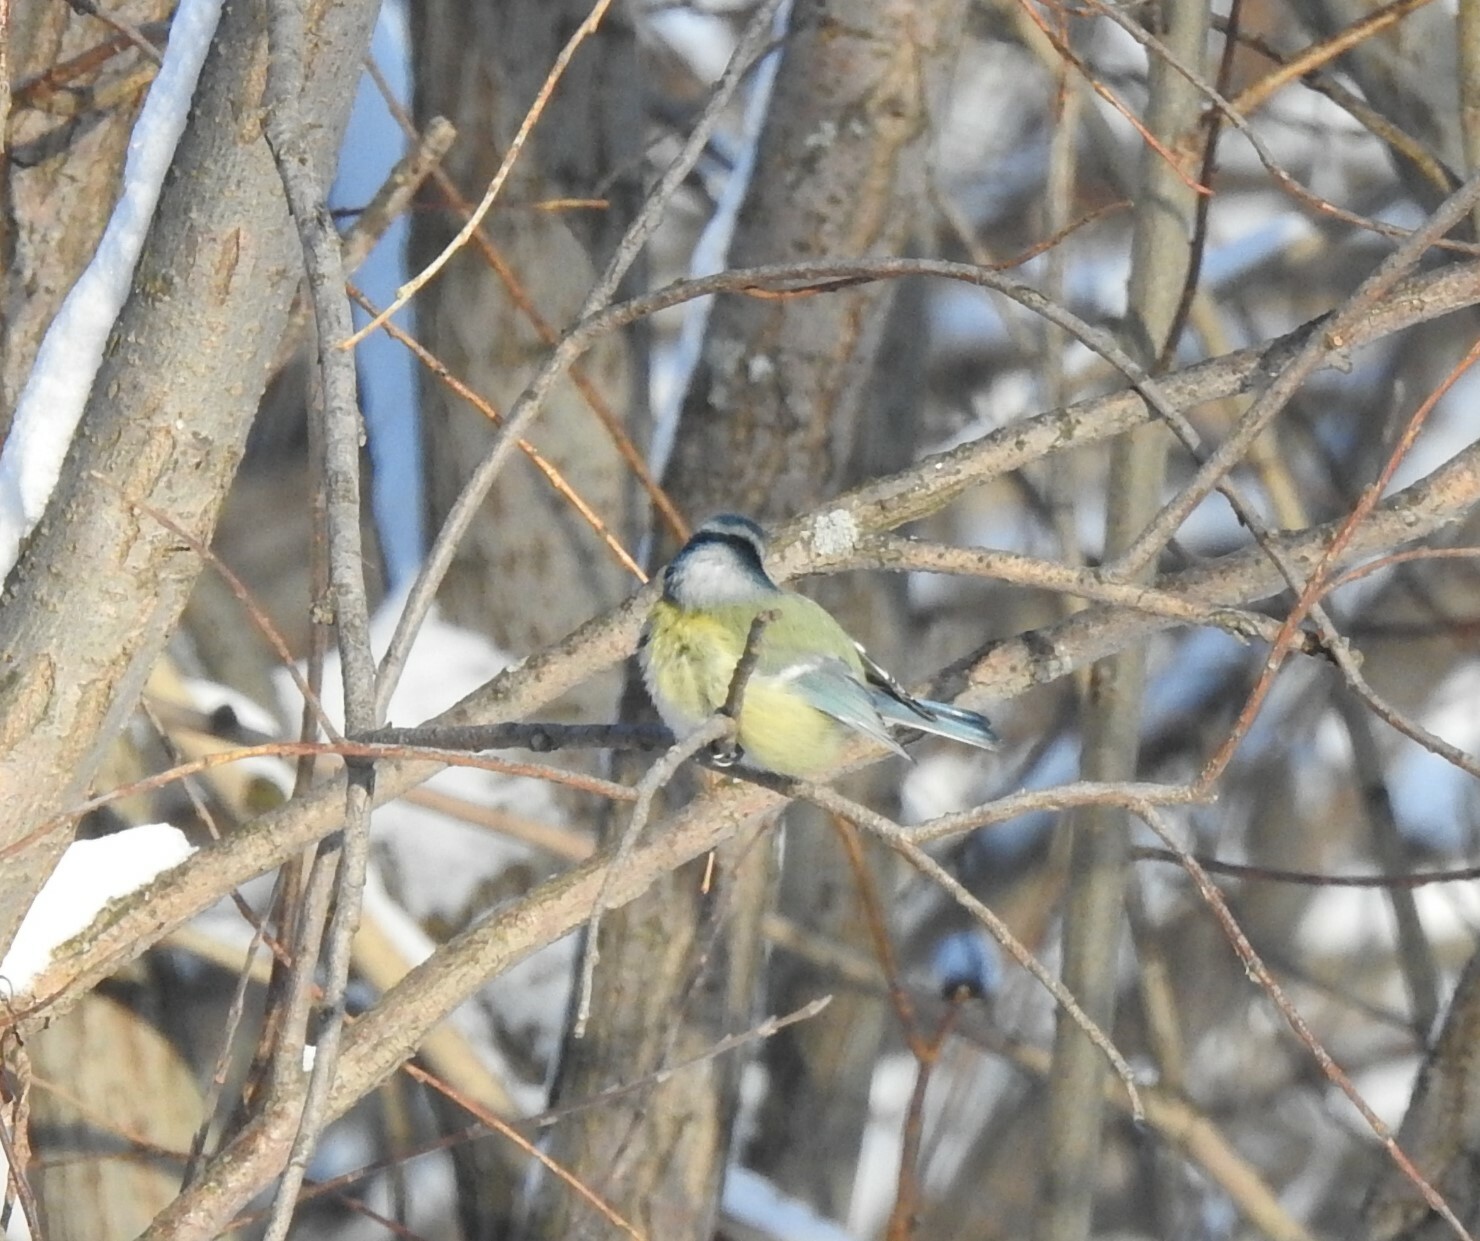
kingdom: Animalia
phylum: Chordata
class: Aves
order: Passeriformes
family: Paridae
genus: Cyanistes
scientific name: Cyanistes caeruleus
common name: Eurasian blue tit
